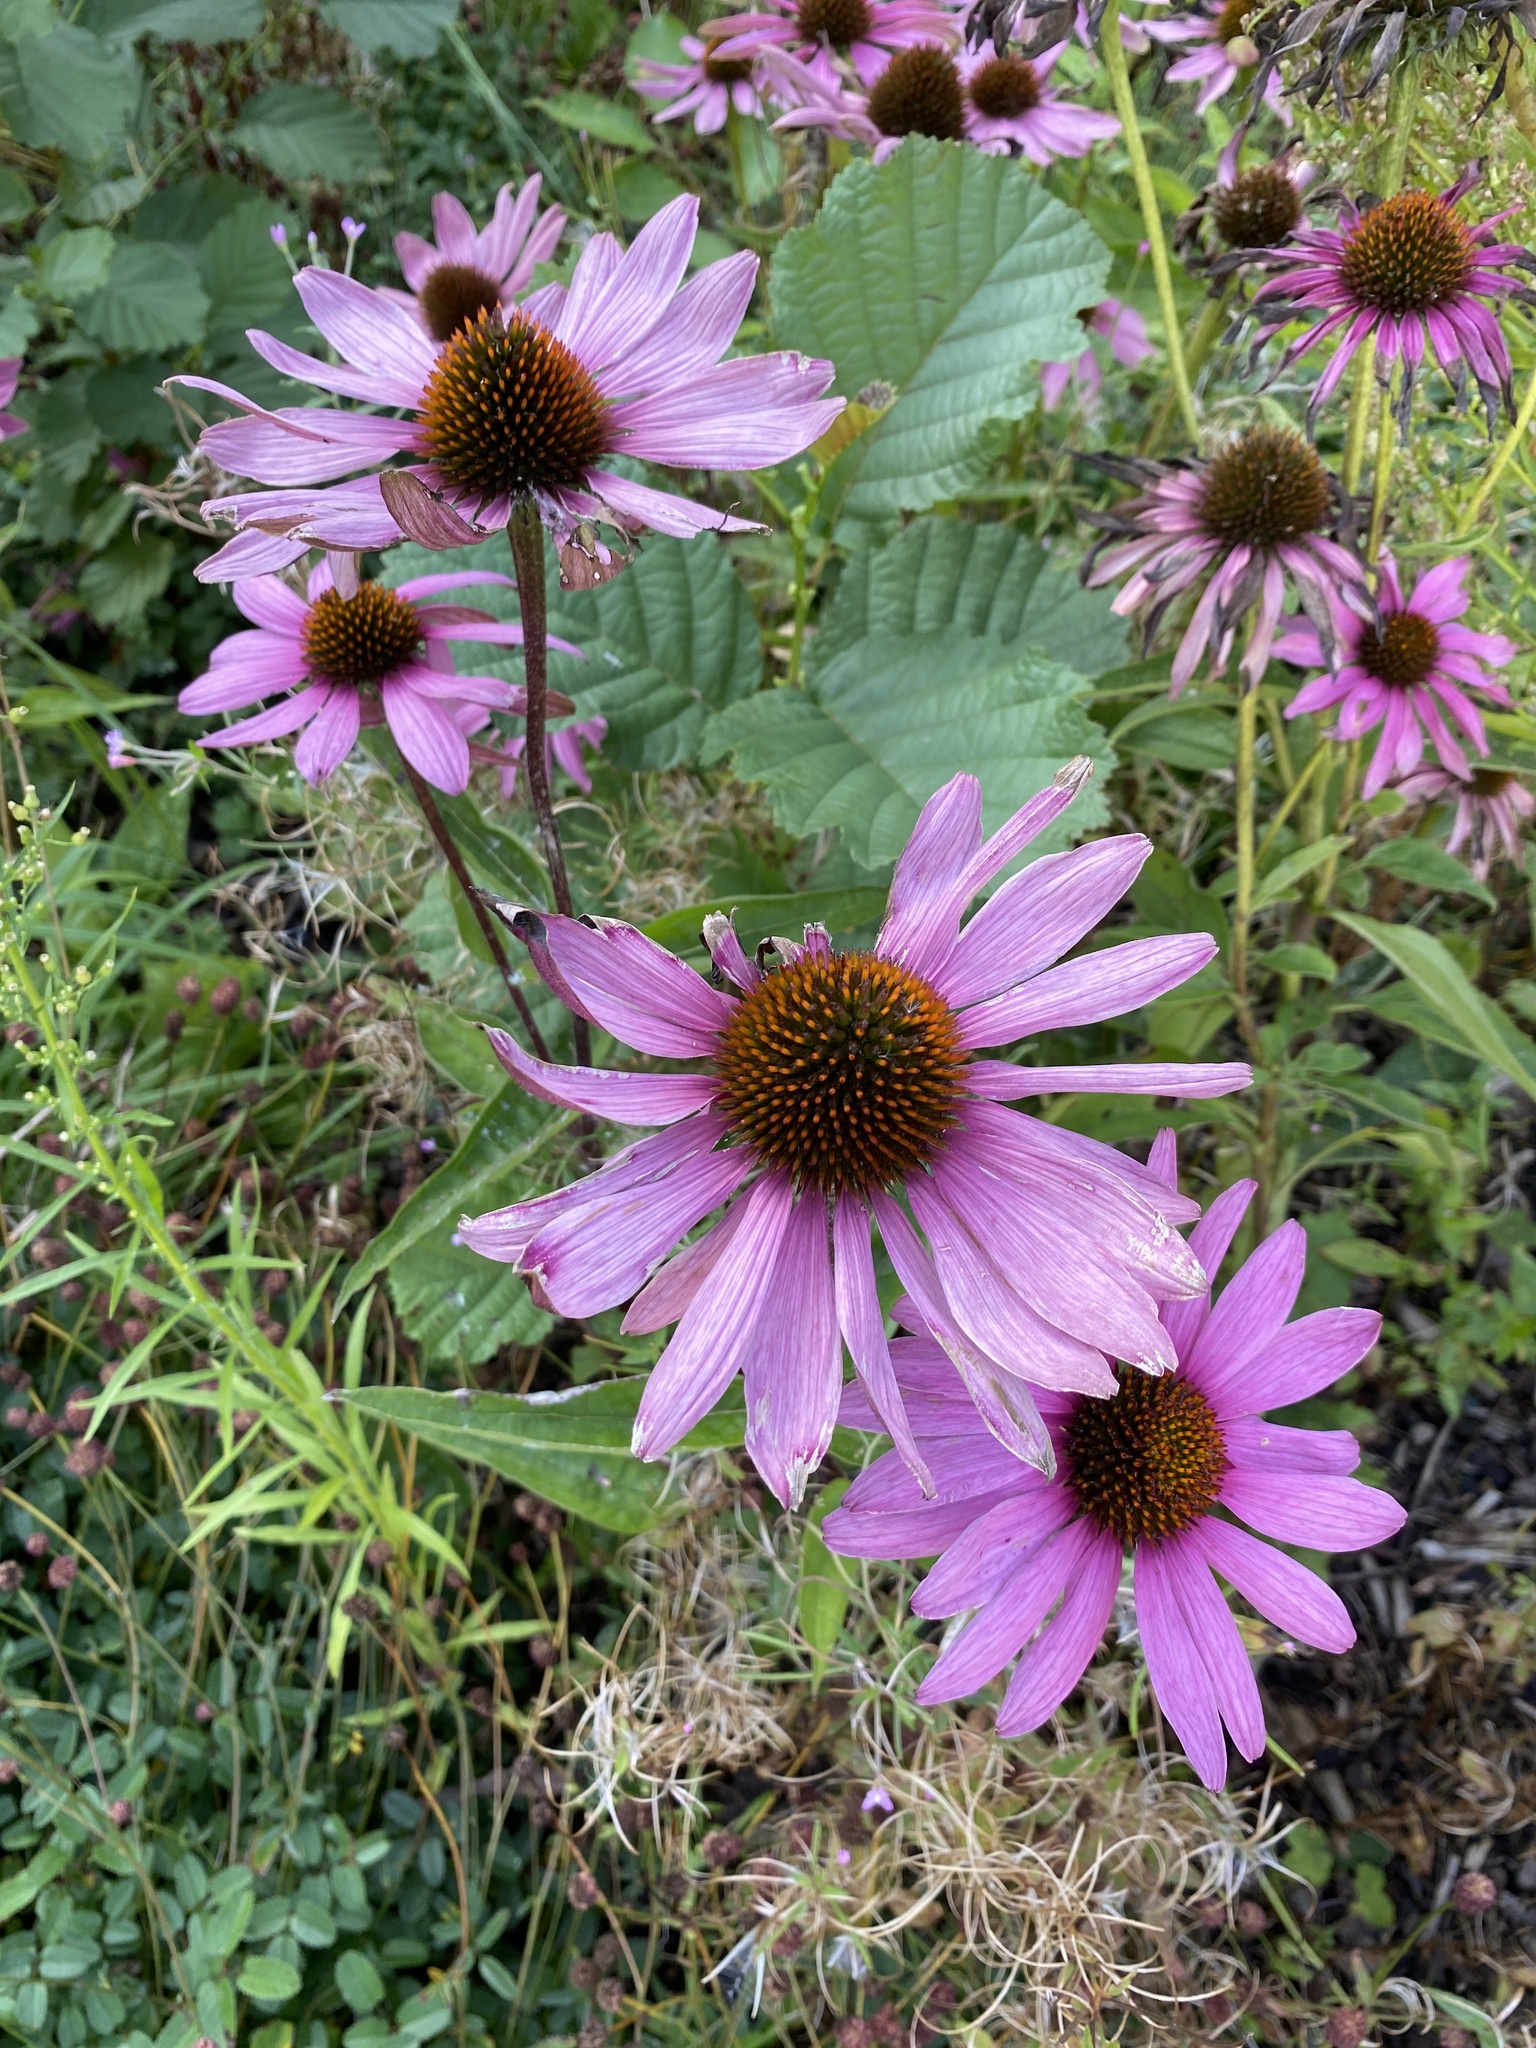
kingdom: Plantae
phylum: Tracheophyta
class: Magnoliopsida
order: Asterales
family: Asteraceae
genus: Echinacea
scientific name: Echinacea purpurea
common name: Broad-leaved purple coneflower
